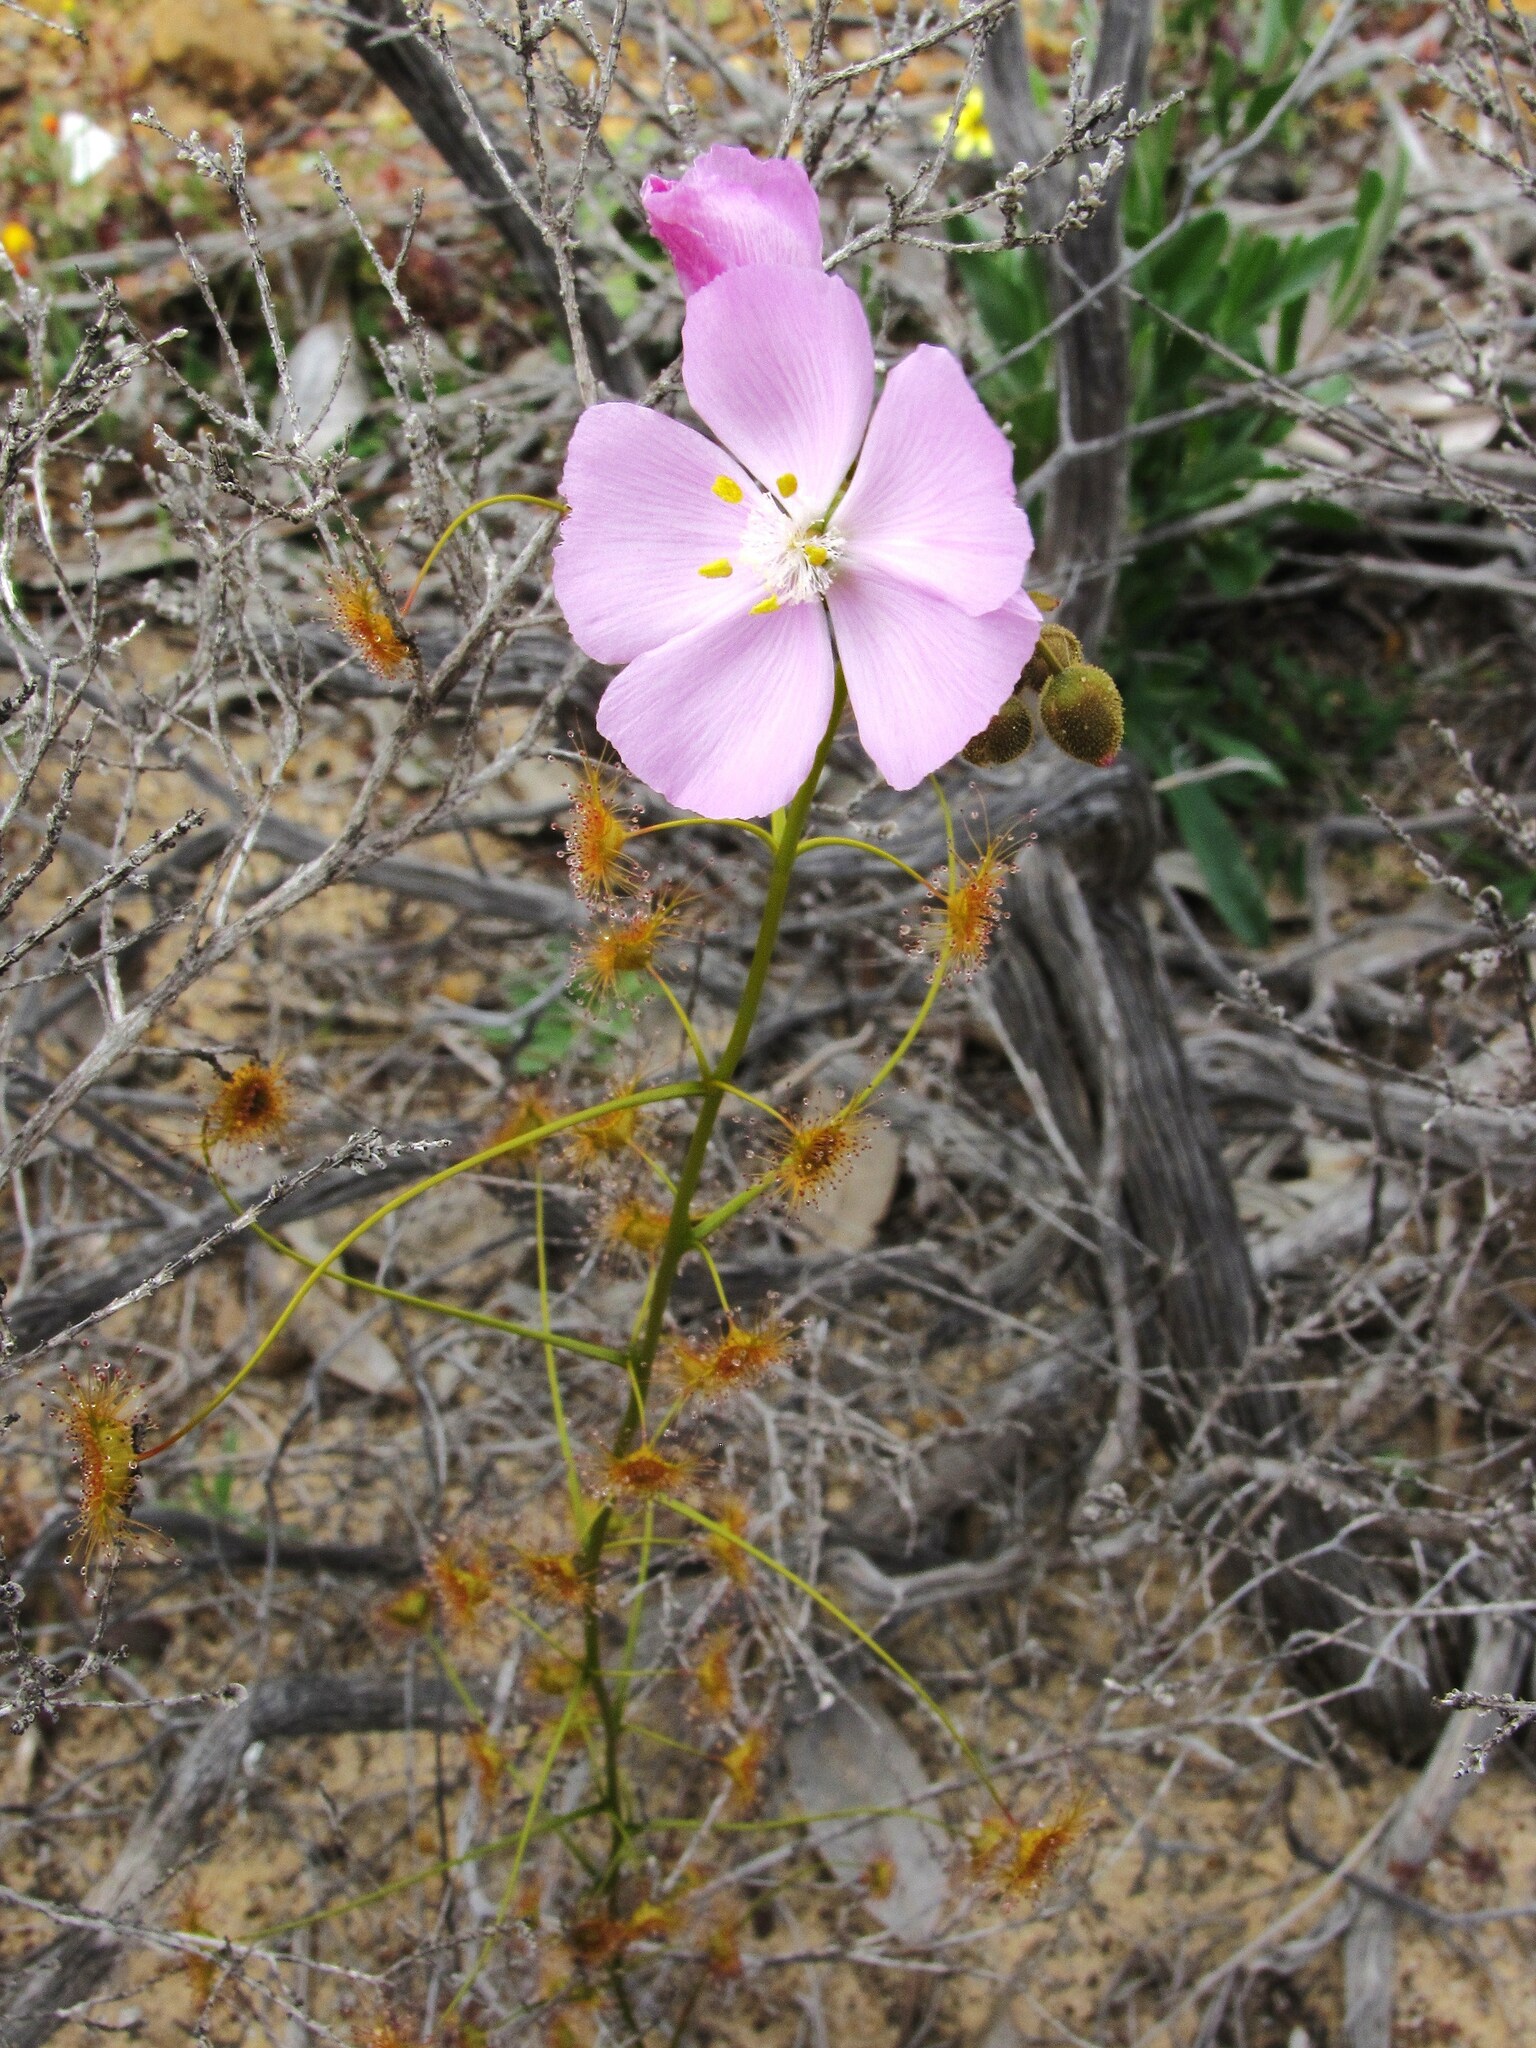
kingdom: Plantae
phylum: Tracheophyta
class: Magnoliopsida
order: Caryophyllales
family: Droseraceae
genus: Drosera
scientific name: Drosera neesii
